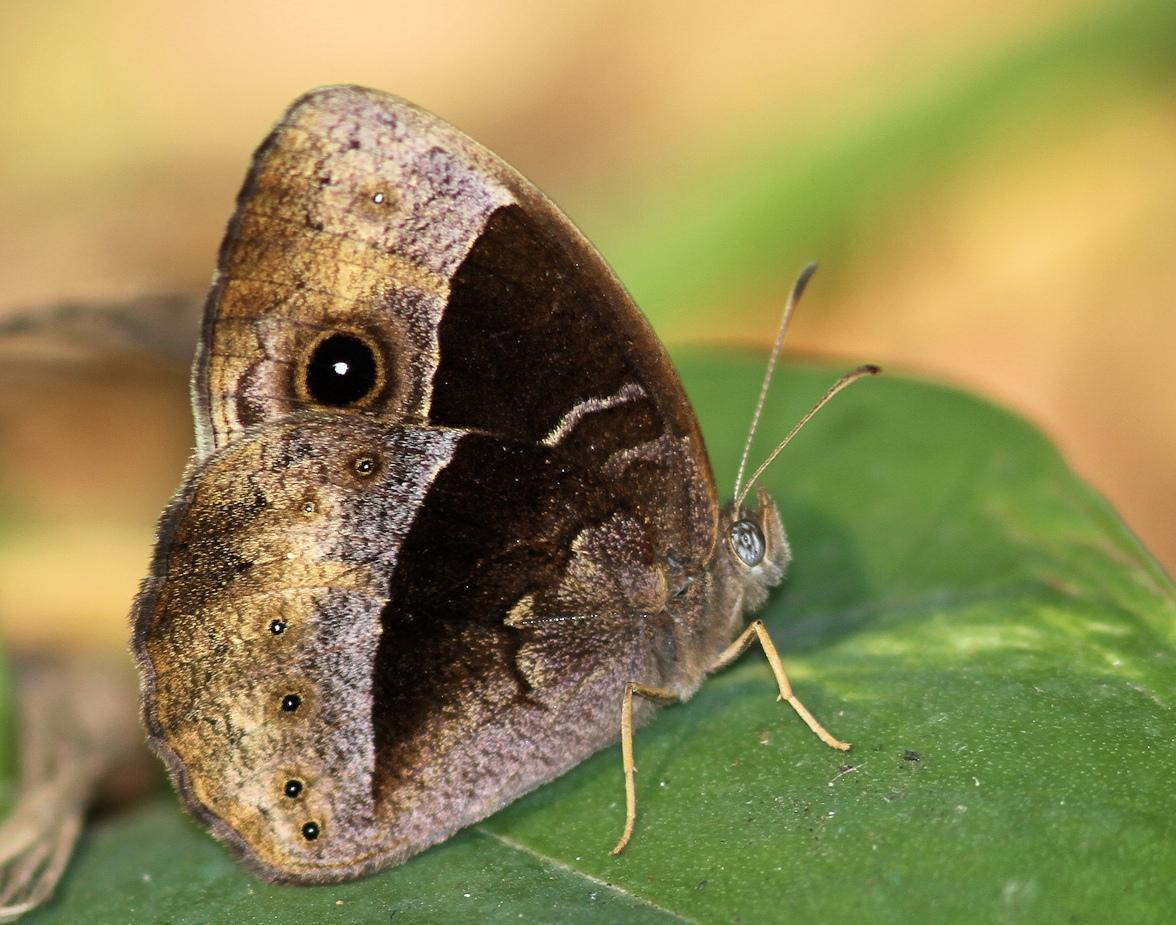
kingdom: Animalia
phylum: Arthropoda
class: Insecta
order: Lepidoptera
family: Nymphalidae
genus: Mycalesis
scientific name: Mycalesis rhacotis
